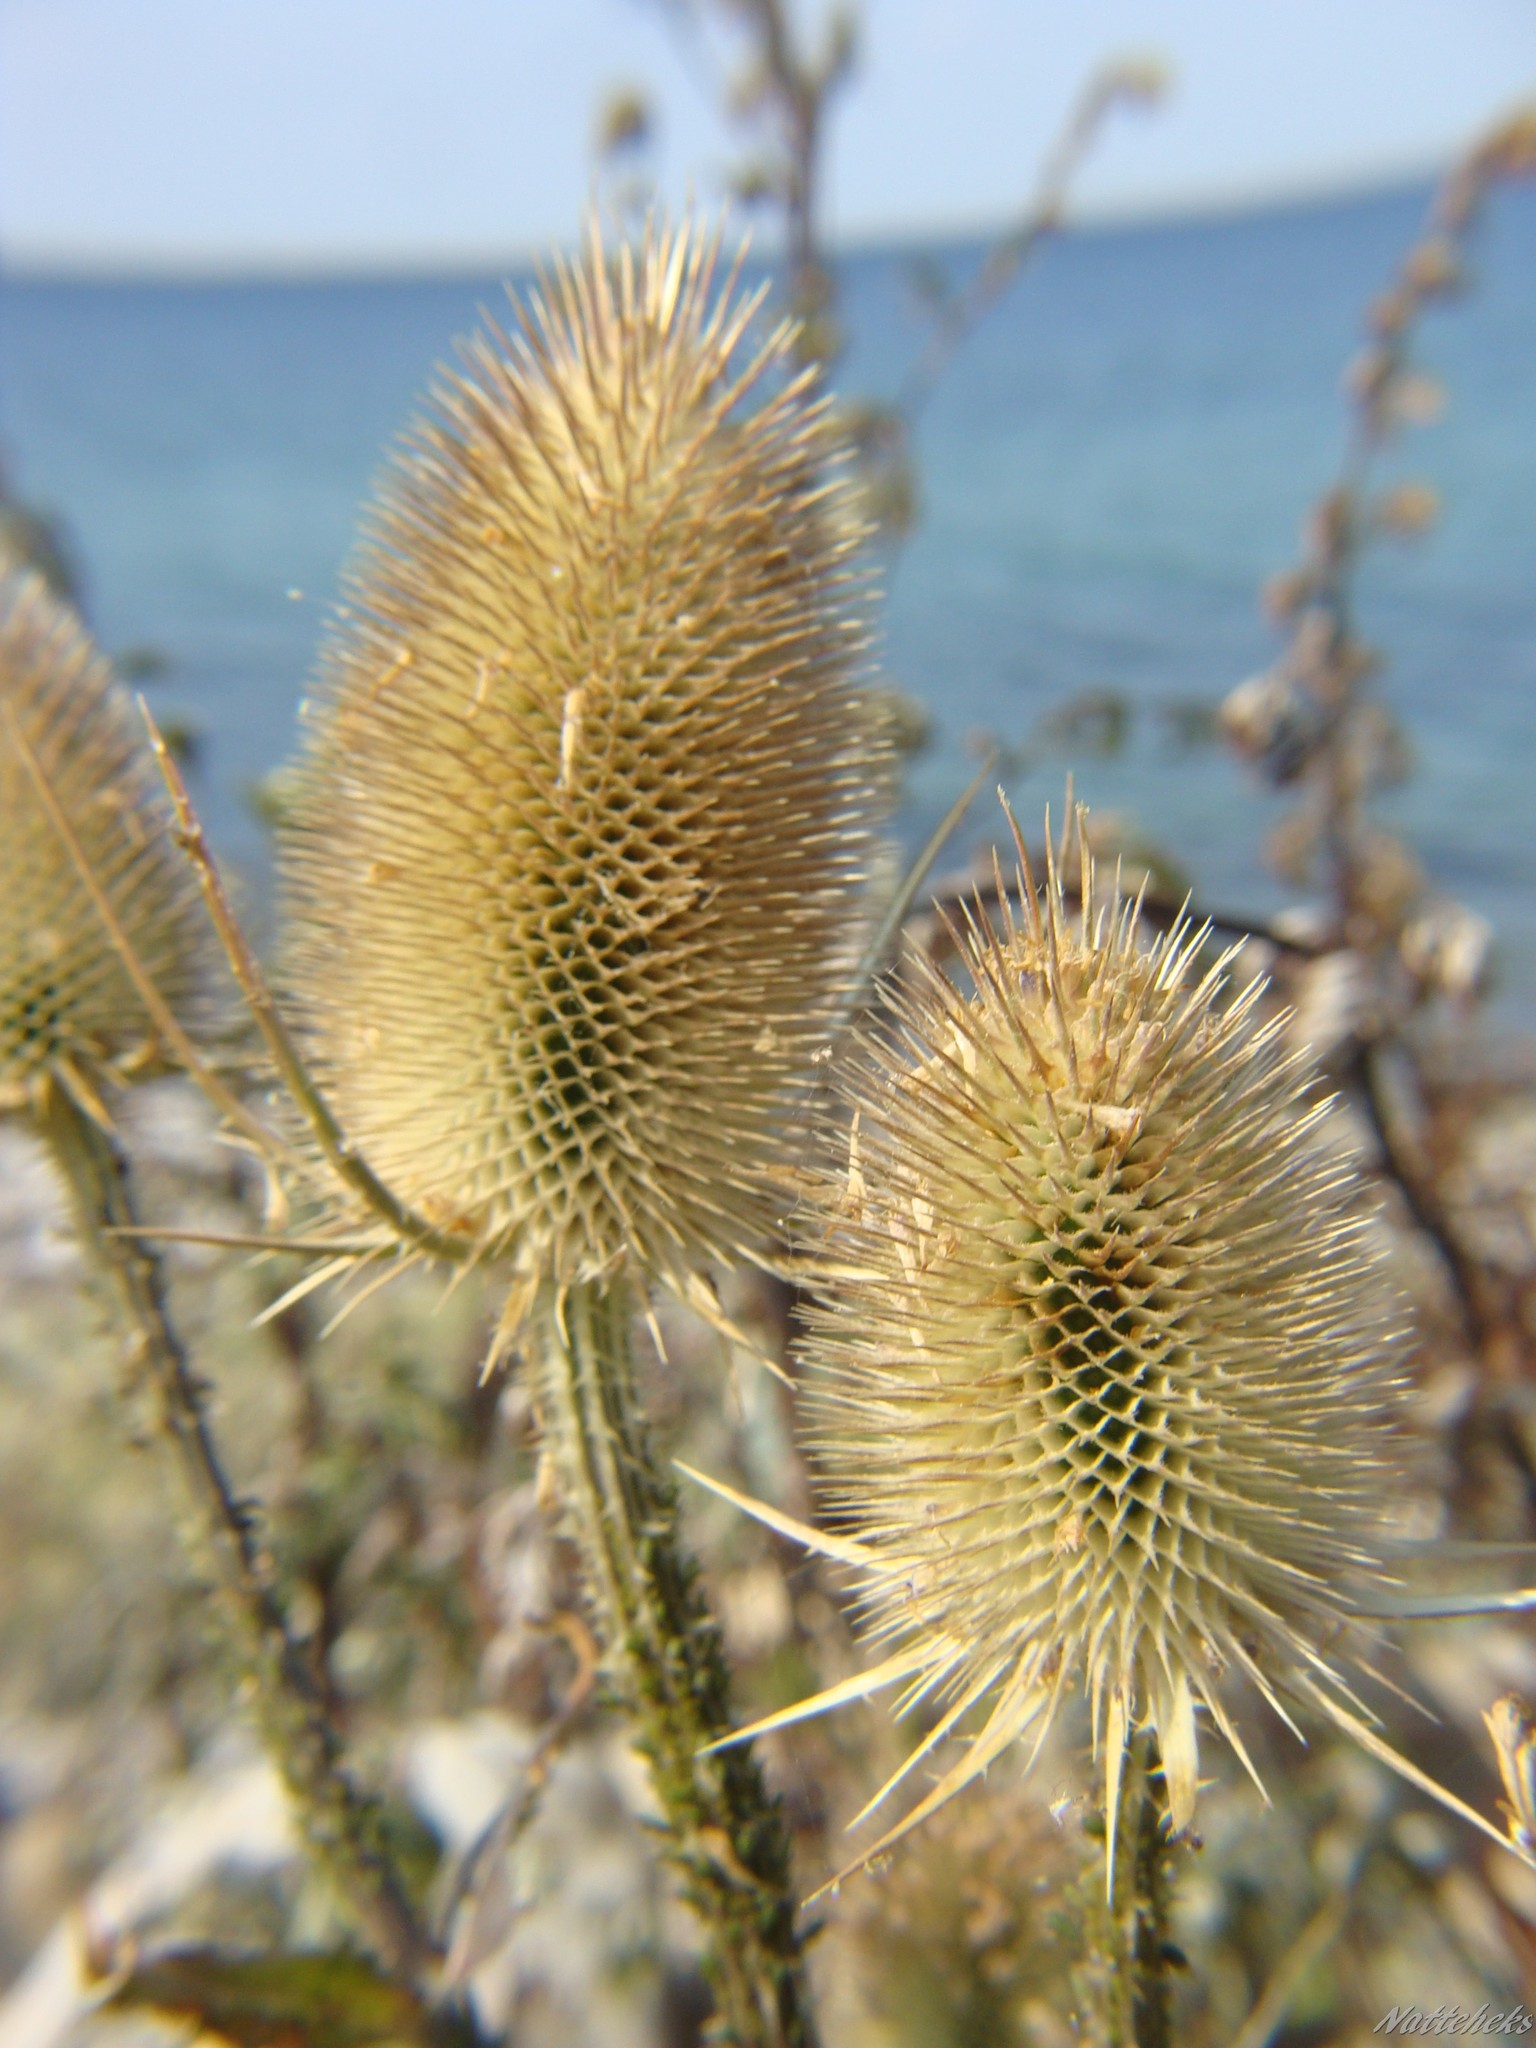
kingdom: Plantae
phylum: Tracheophyta
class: Magnoliopsida
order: Dipsacales
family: Caprifoliaceae
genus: Dipsacus
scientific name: Dipsacus fullonum
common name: Teasel
